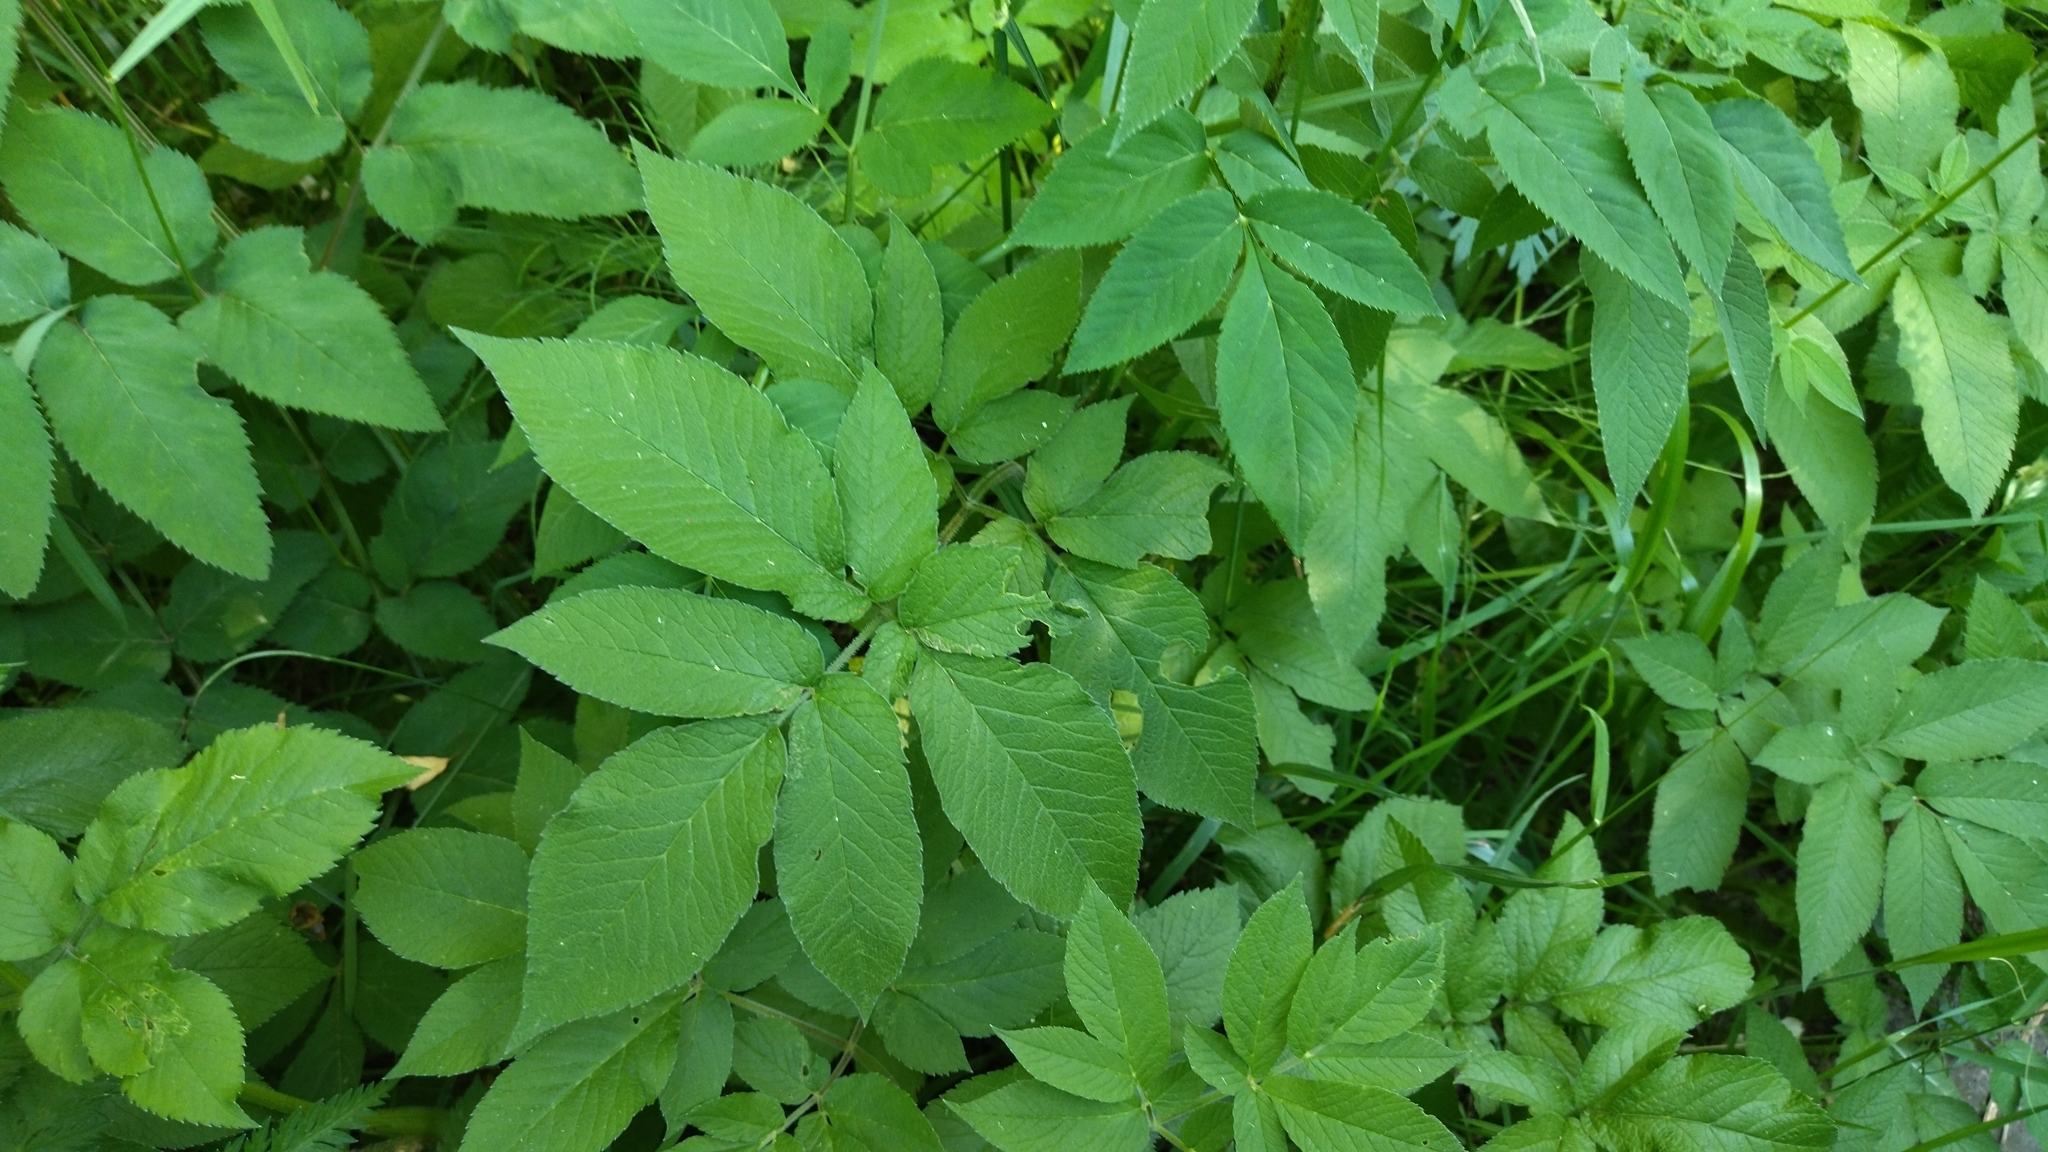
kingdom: Plantae
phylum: Tracheophyta
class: Magnoliopsida
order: Apiales
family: Apiaceae
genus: Chaerophyllum
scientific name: Chaerophyllum aromaticum
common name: Broadleaf chervil
